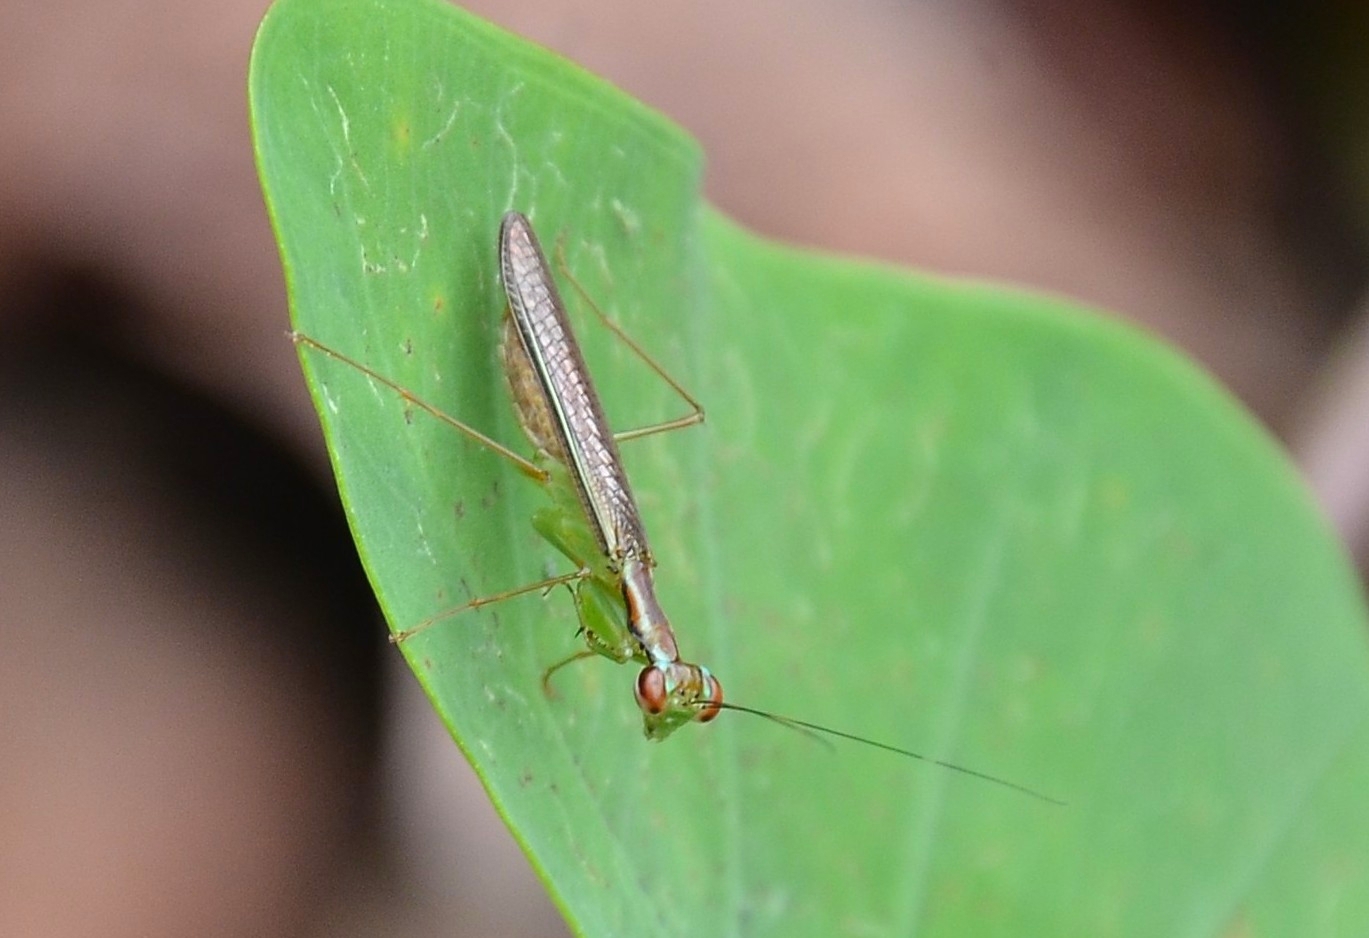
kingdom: Animalia
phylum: Arthropoda
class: Insecta
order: Mantodea
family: Gonypetidae
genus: Hapalopeza
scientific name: Hapalopeza nilgirica
